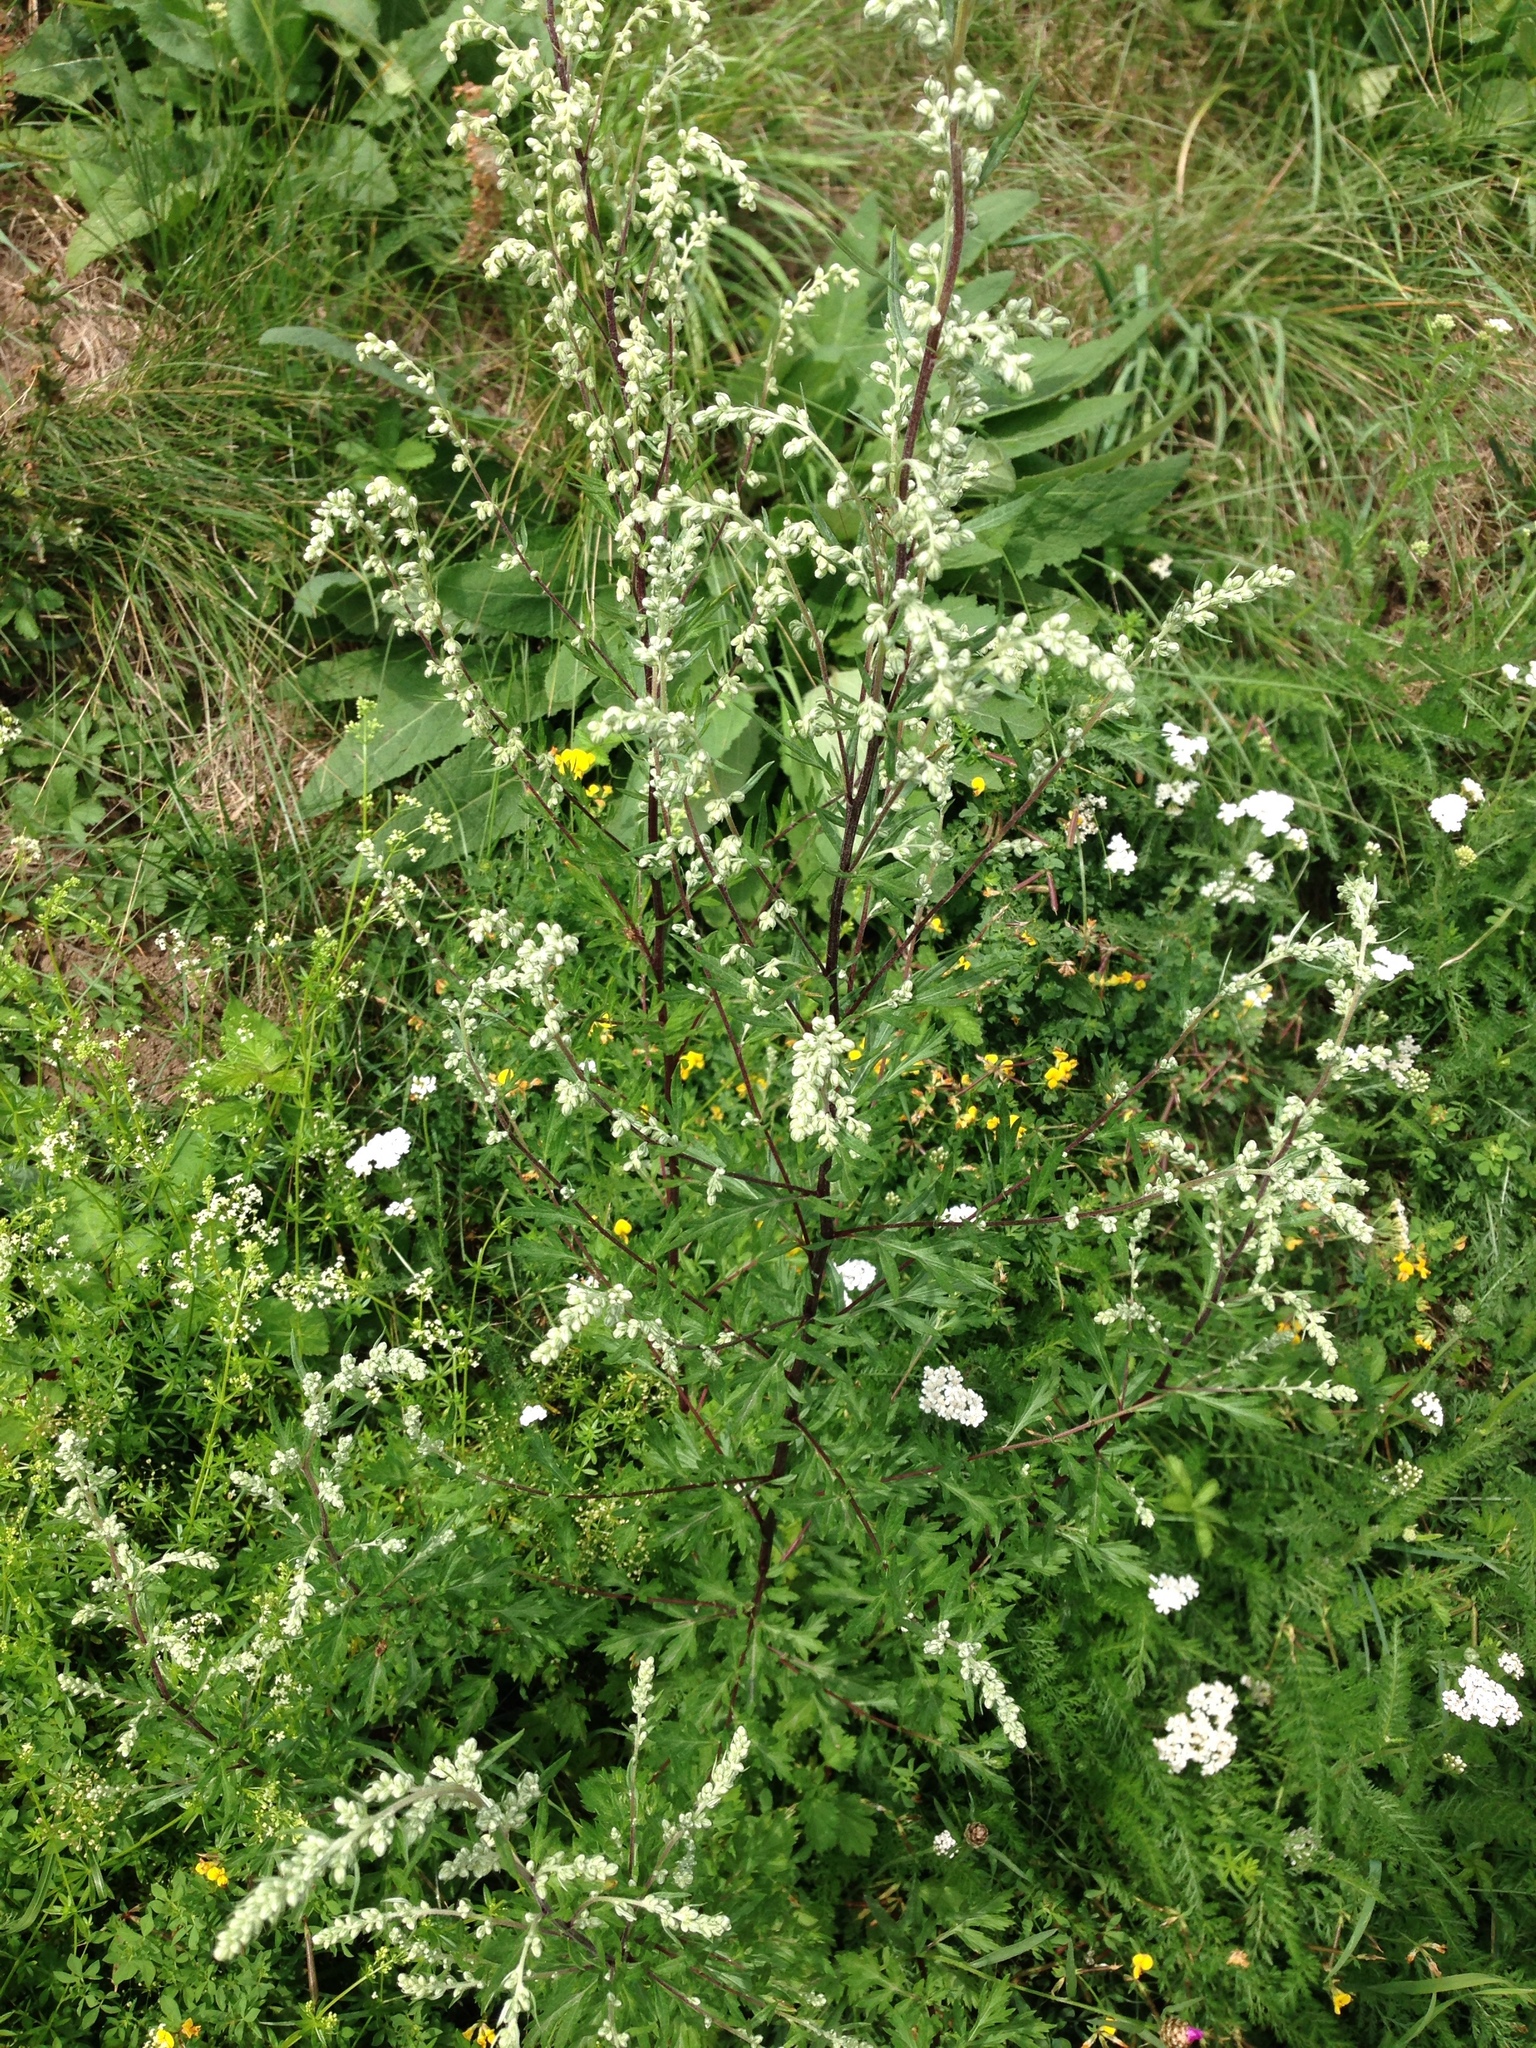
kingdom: Plantae
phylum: Tracheophyta
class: Magnoliopsida
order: Asterales
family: Asteraceae
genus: Artemisia
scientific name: Artemisia vulgaris
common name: Mugwort
